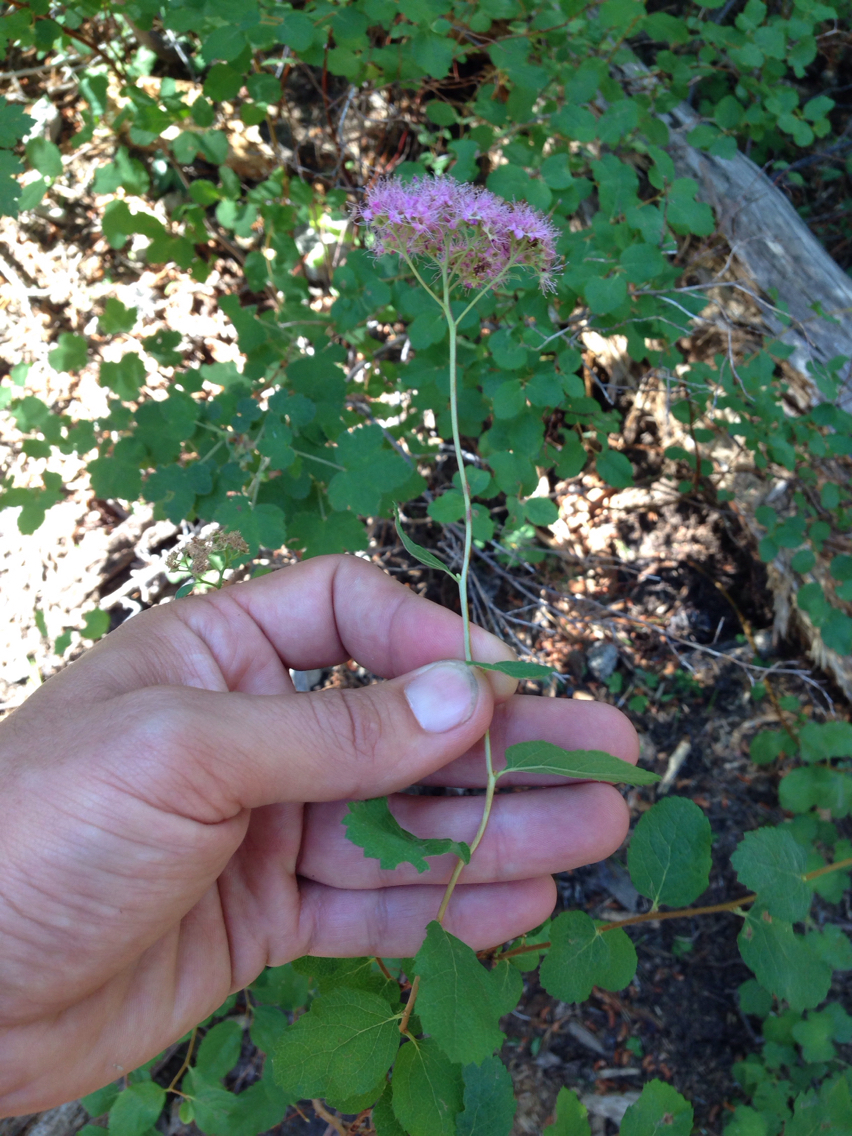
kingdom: Plantae
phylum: Tracheophyta
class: Magnoliopsida
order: Rosales
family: Rosaceae
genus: Spiraea
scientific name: Spiraea splendens
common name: Subalpine meadowsweet
